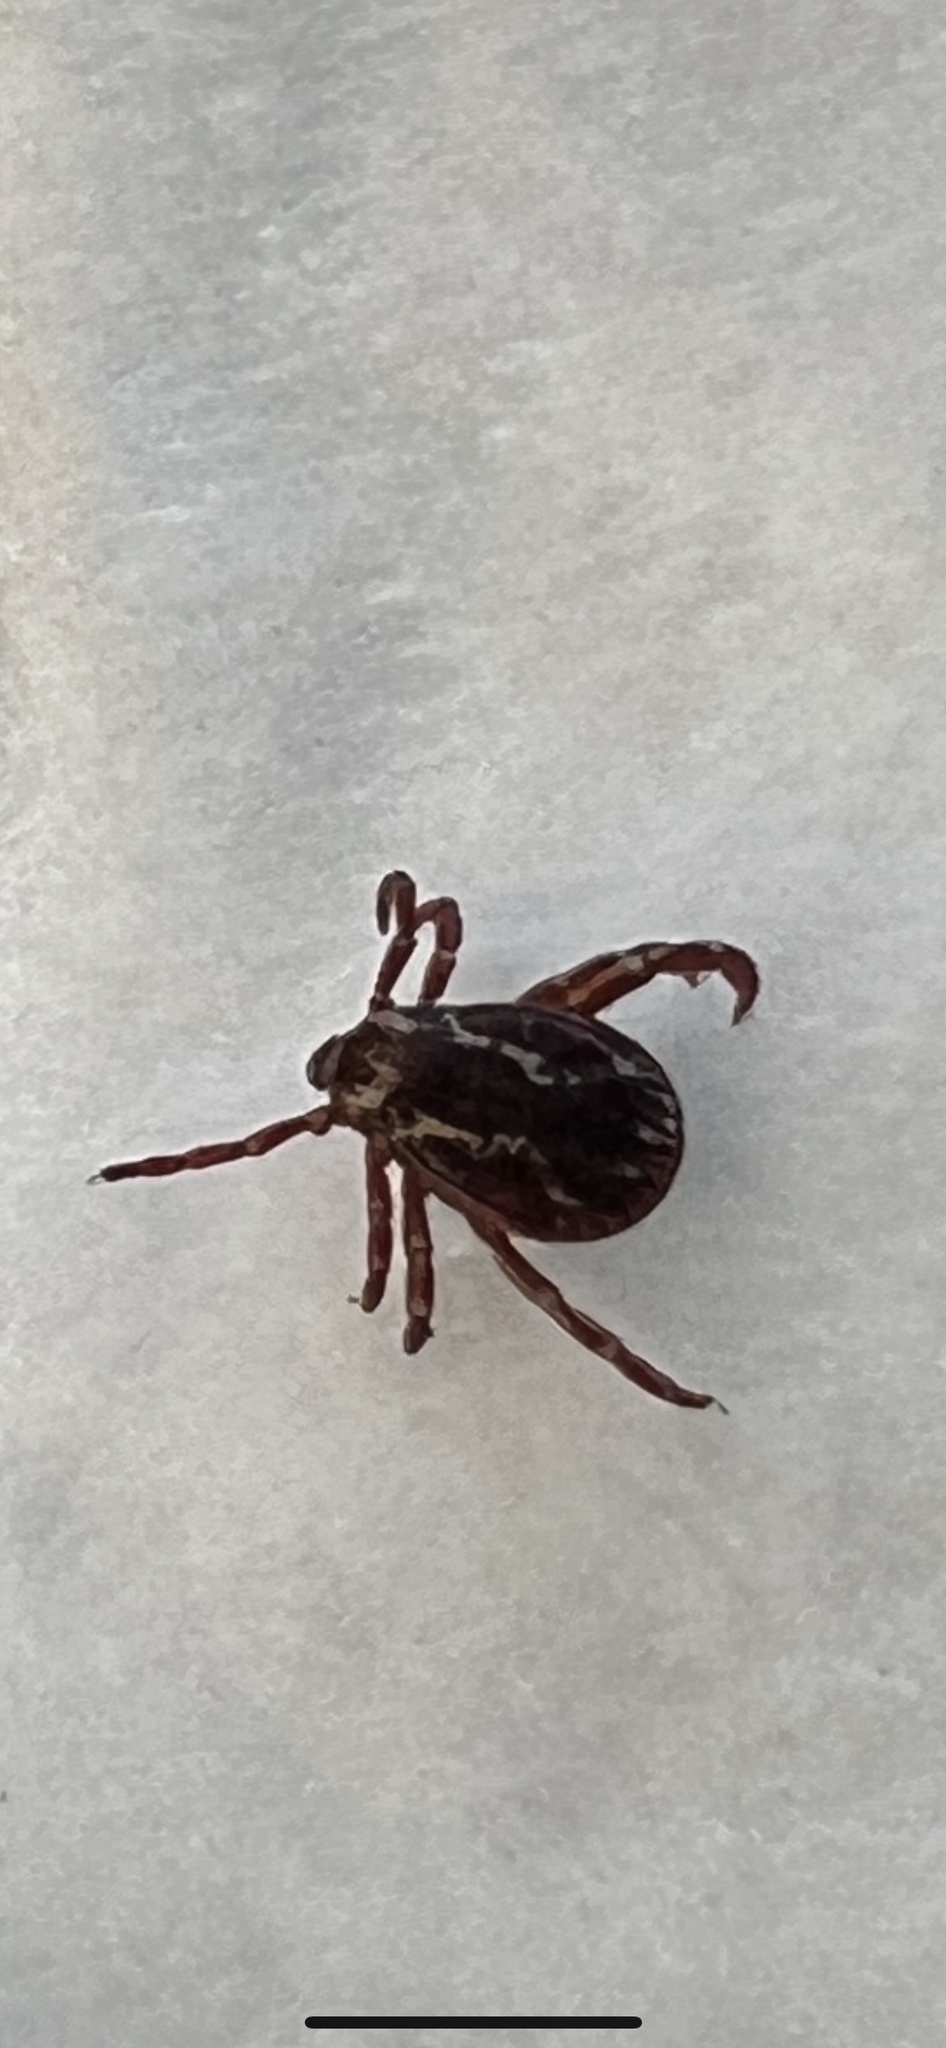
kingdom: Animalia
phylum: Arthropoda
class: Arachnida
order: Ixodida
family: Ixodidae
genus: Dermacentor
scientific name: Dermacentor variabilis
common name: American dog tick
